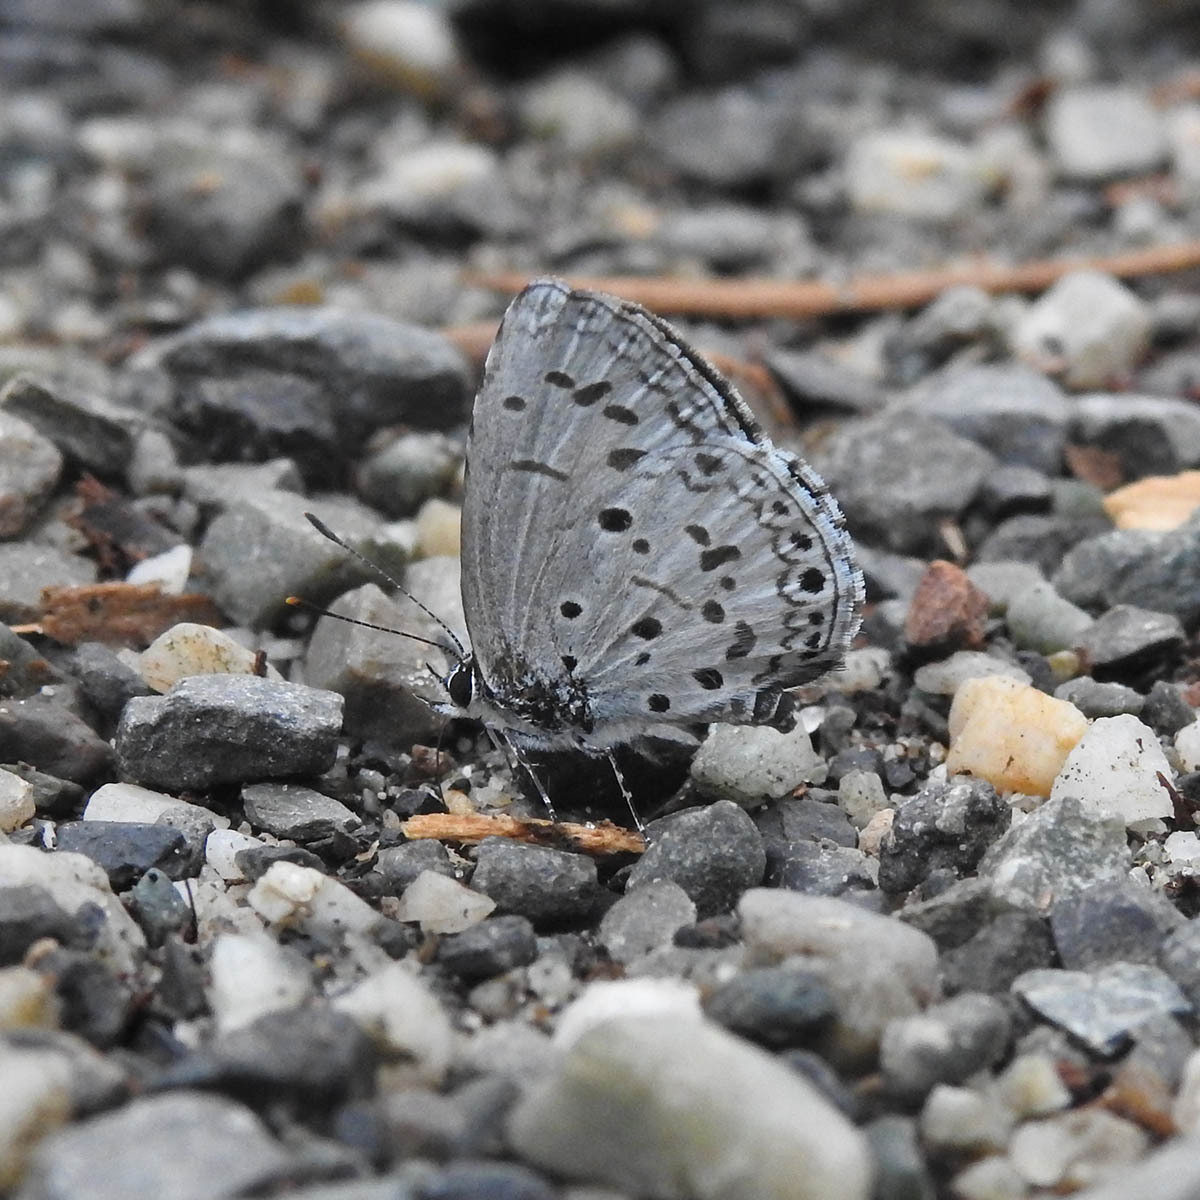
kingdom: Animalia
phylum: Arthropoda
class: Insecta
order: Lepidoptera
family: Lycaenidae
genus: Acytolepis
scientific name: Acytolepis puspa
